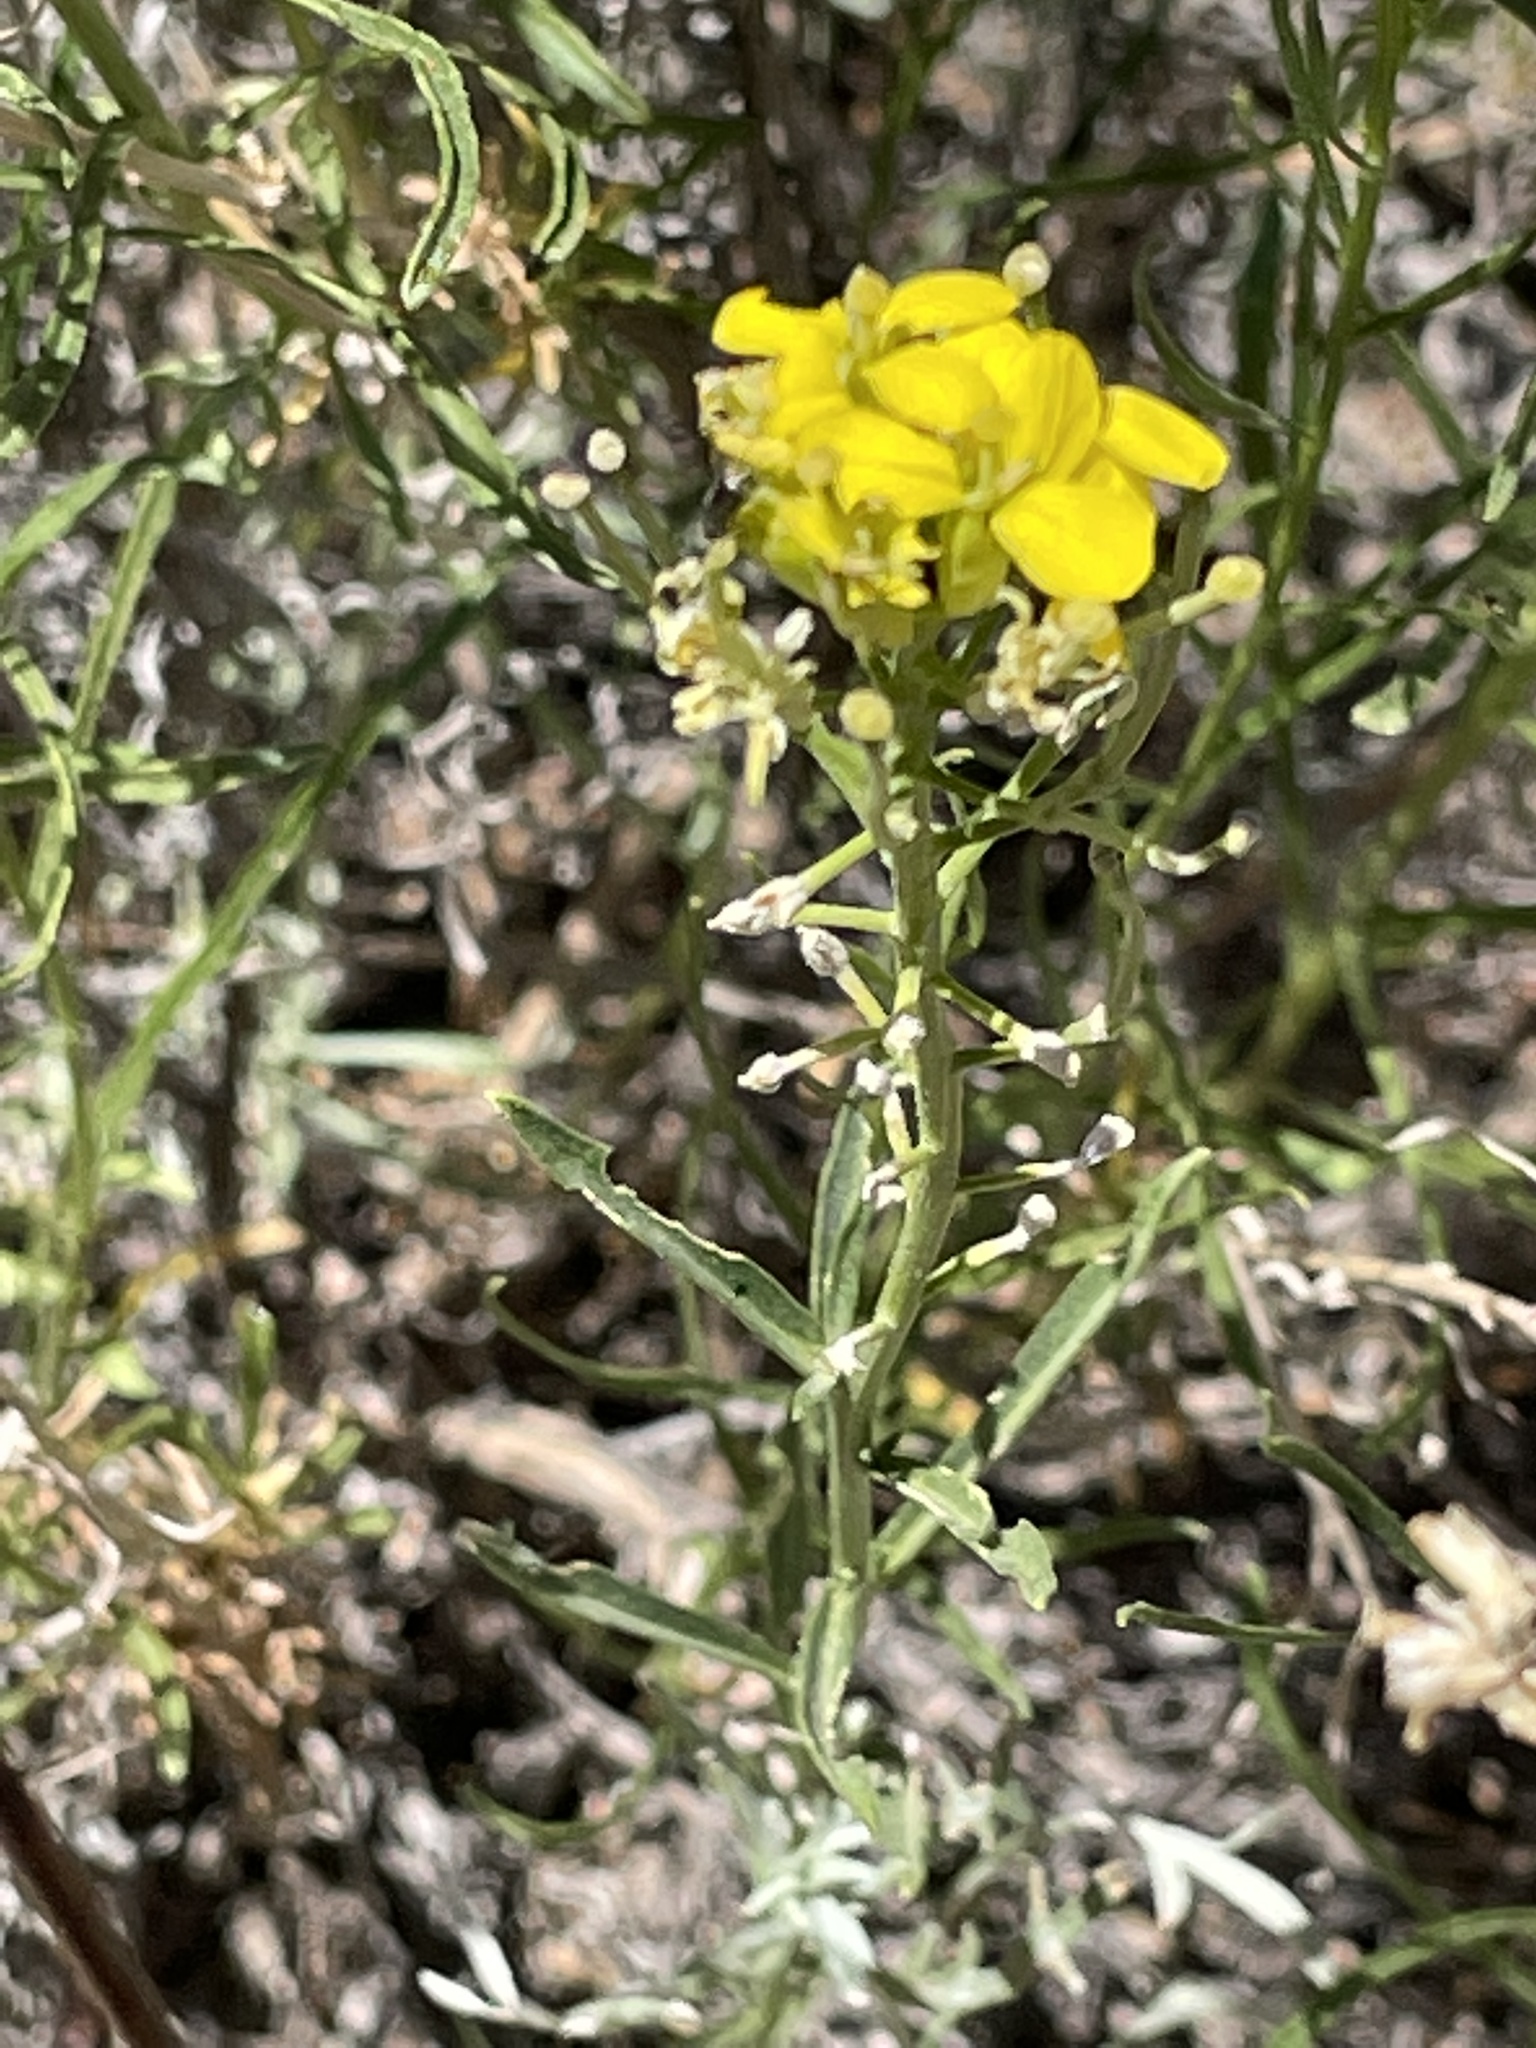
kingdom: Plantae
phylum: Tracheophyta
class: Magnoliopsida
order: Brassicales
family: Brassicaceae
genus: Erysimum
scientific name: Erysimum capitatum
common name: Western wallflower
